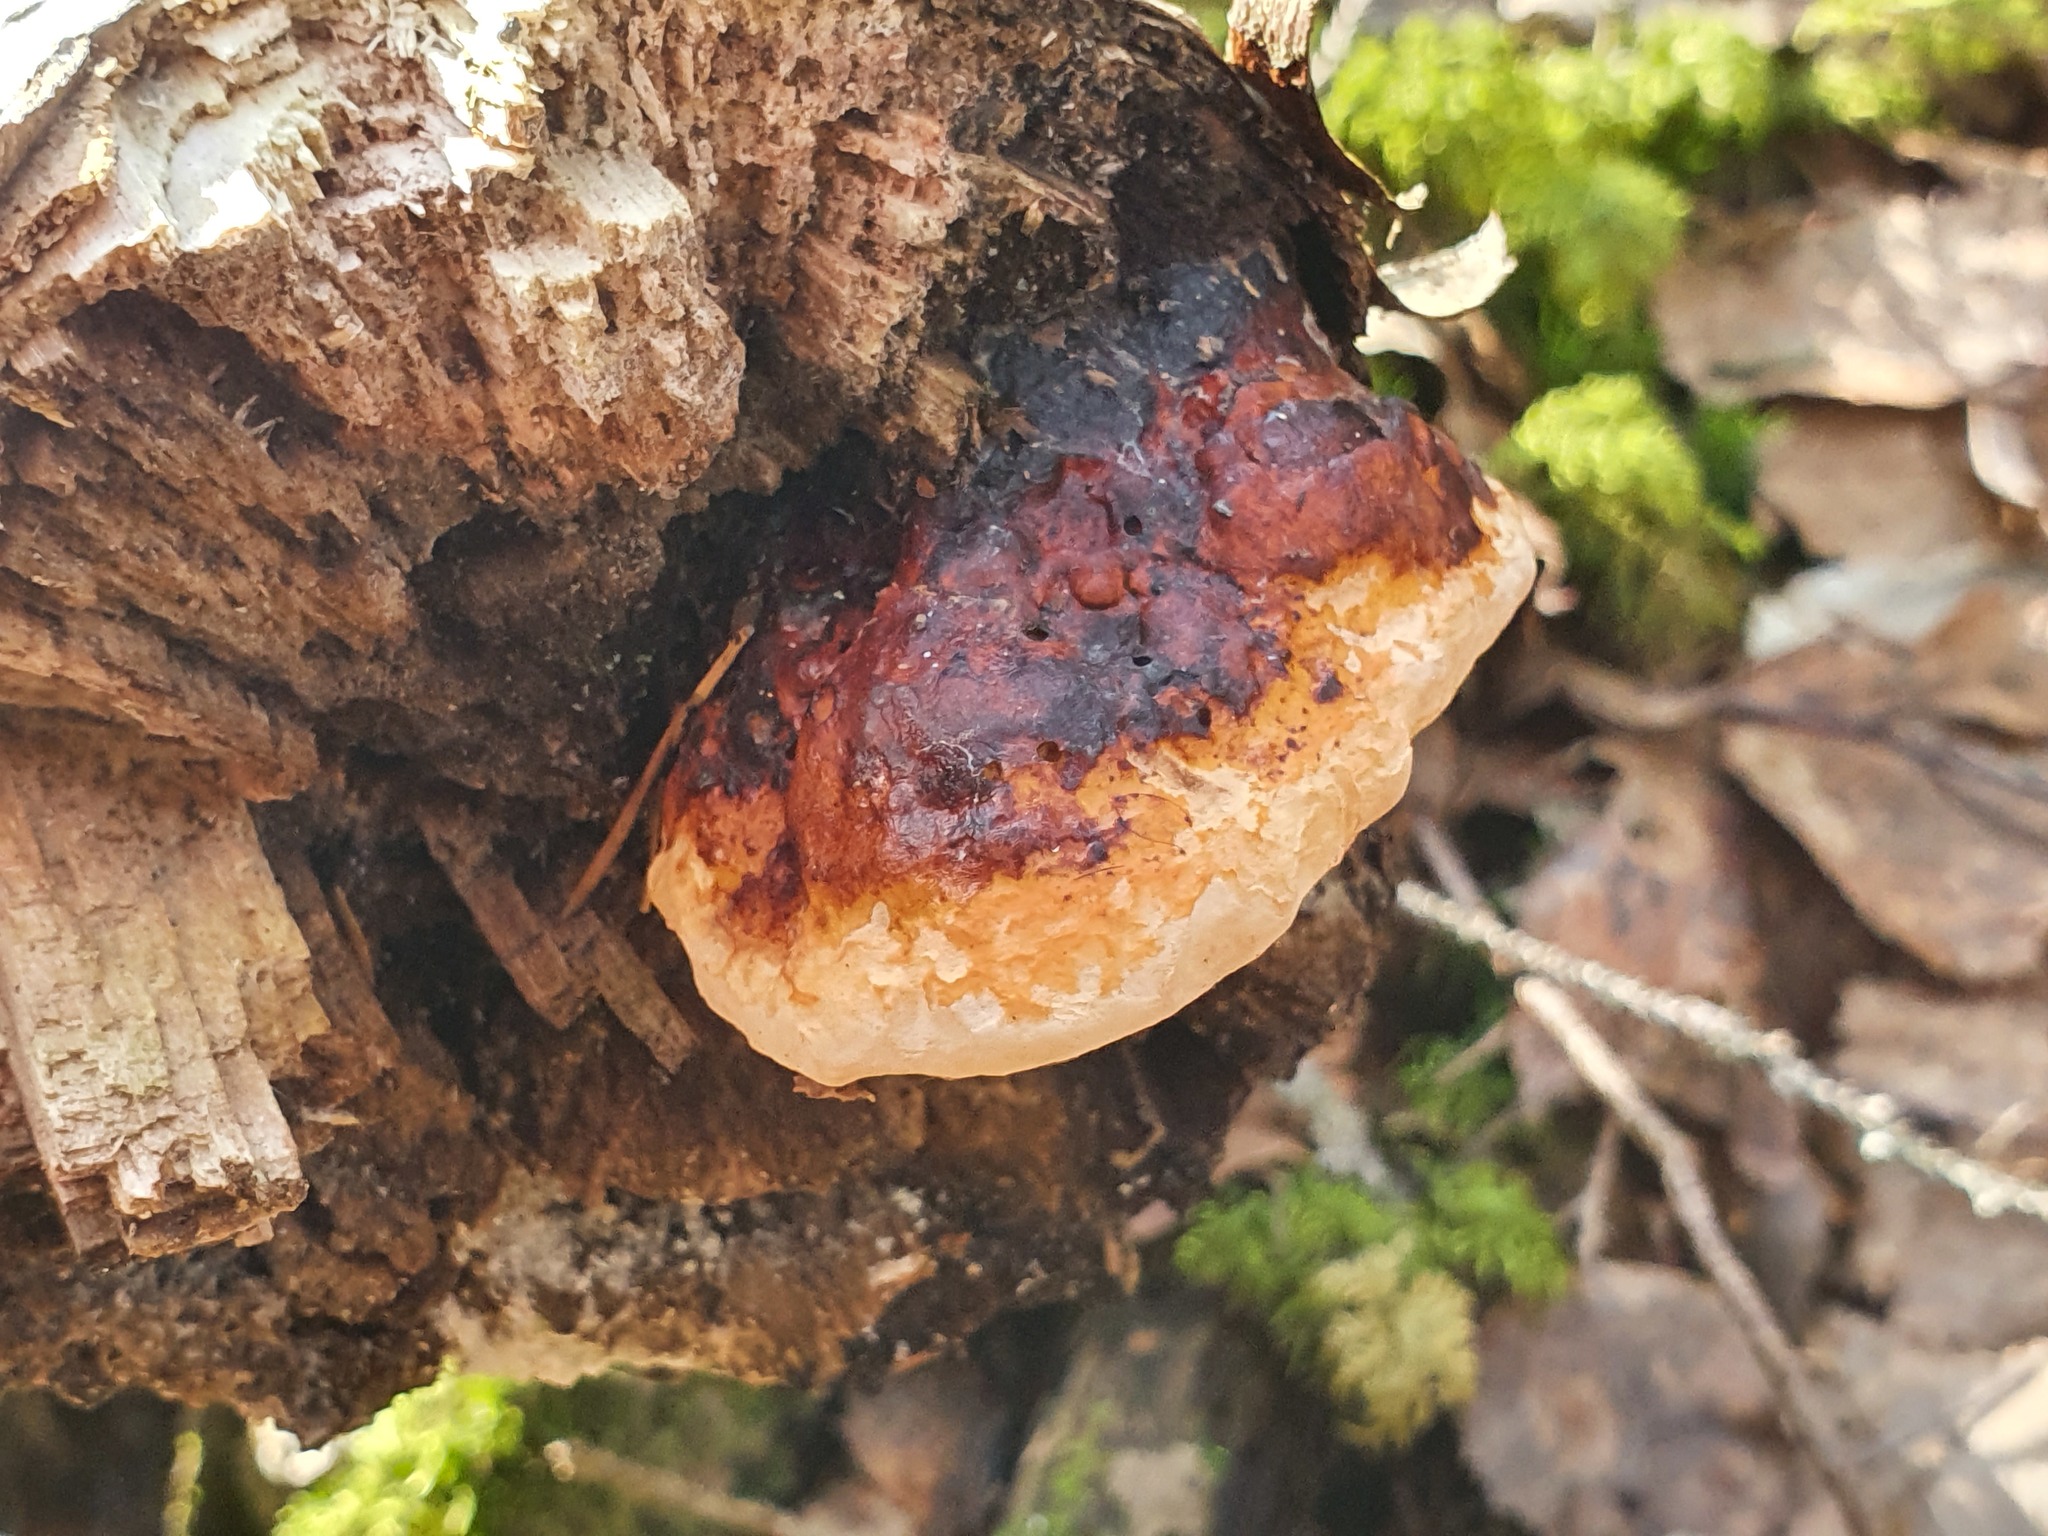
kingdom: Fungi
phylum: Basidiomycota
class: Agaricomycetes
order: Polyporales
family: Fomitopsidaceae
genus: Fomitopsis
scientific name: Fomitopsis pinicola
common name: Red-belted bracket
